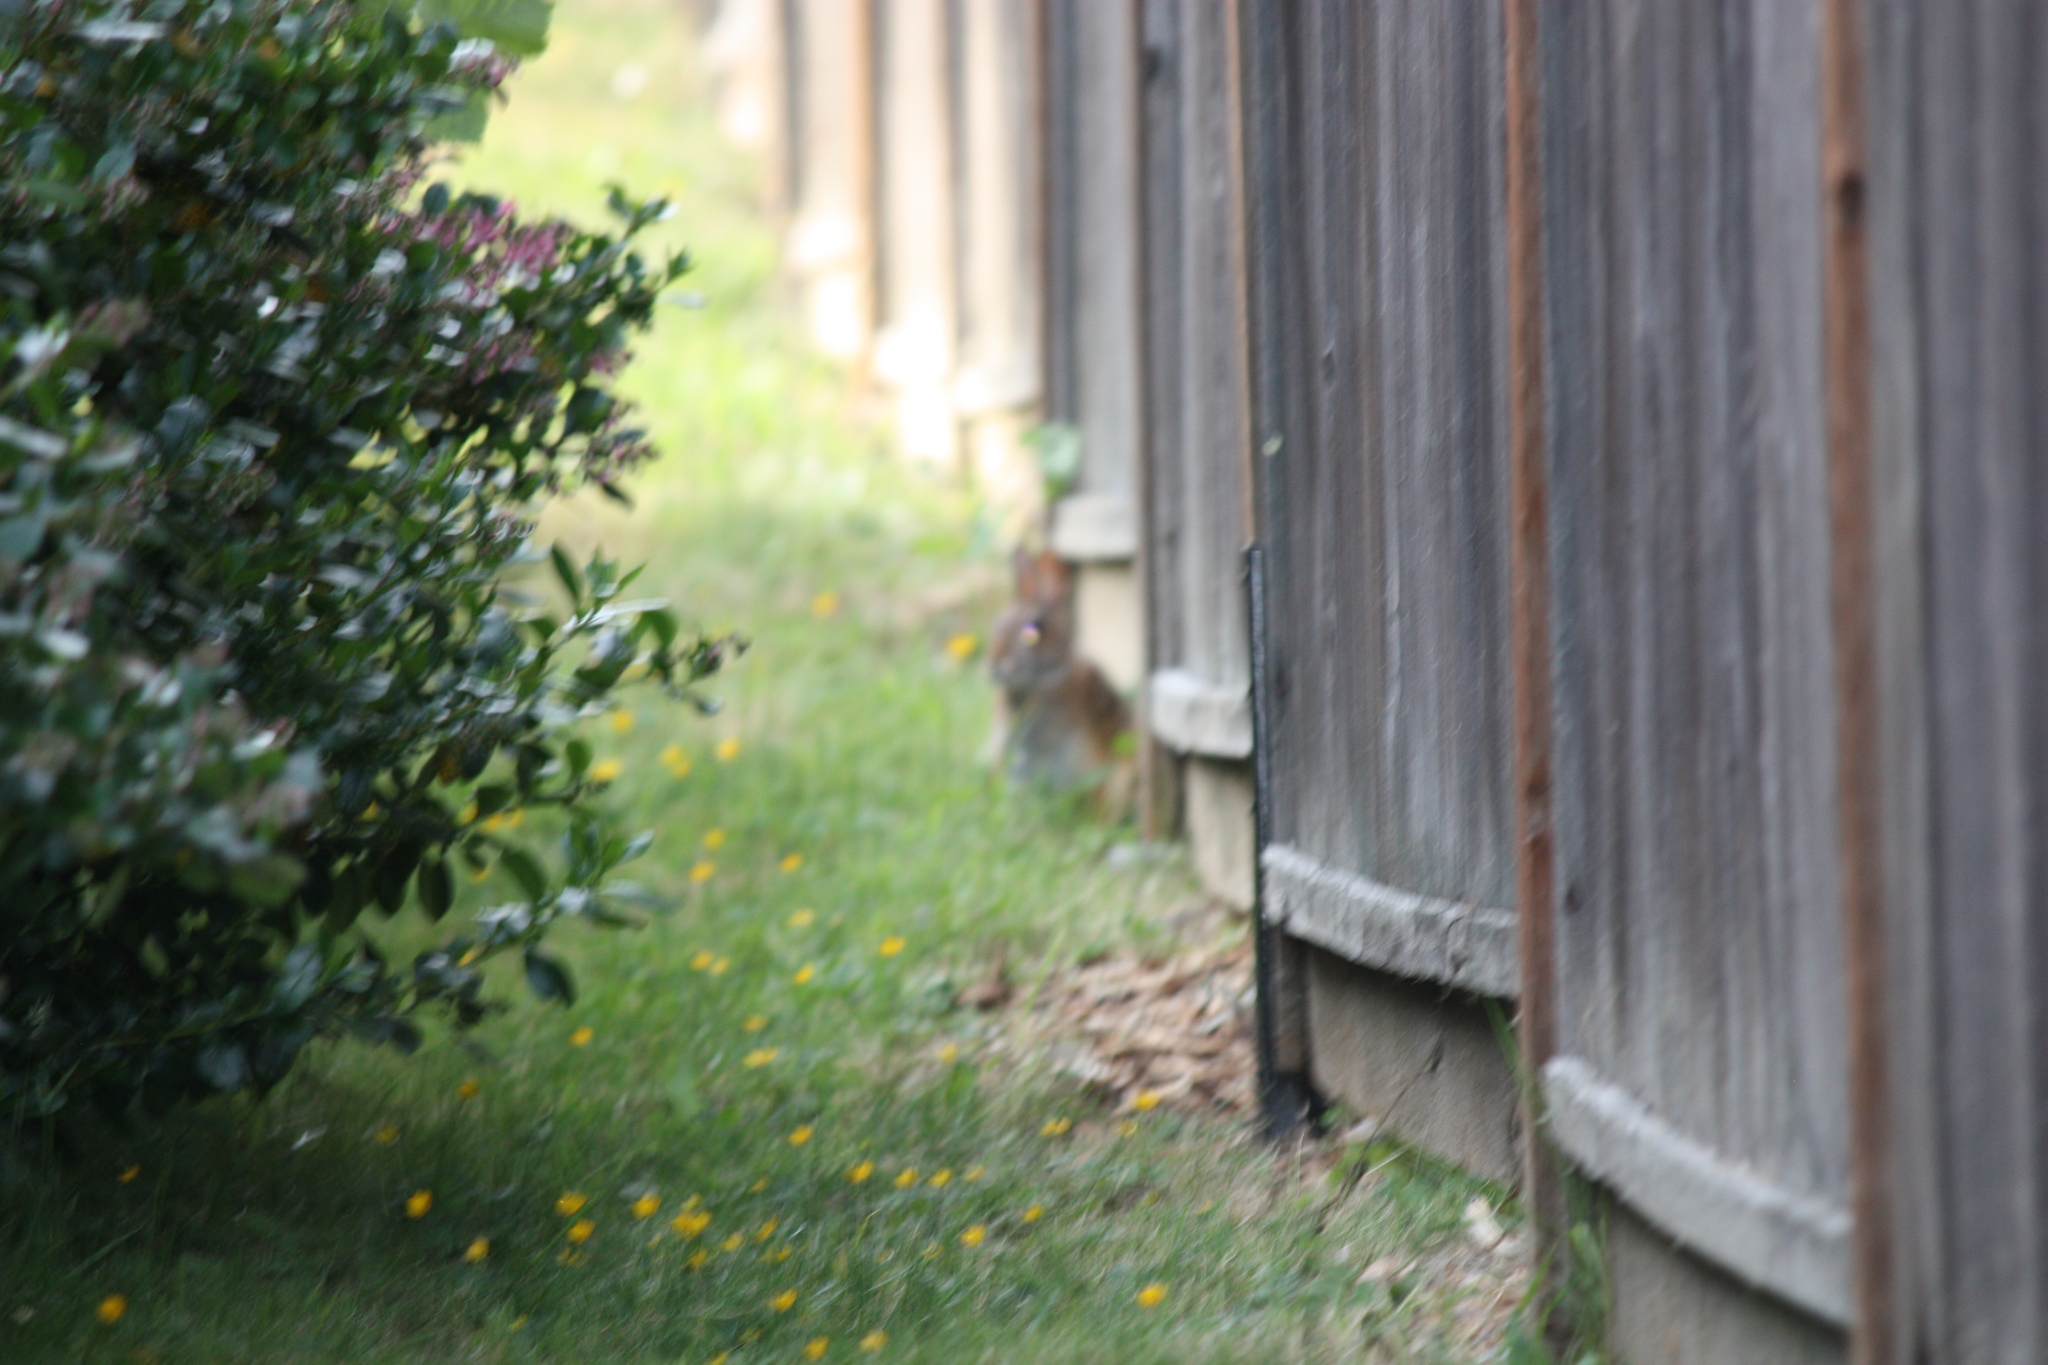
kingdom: Animalia
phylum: Chordata
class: Mammalia
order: Lagomorpha
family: Leporidae
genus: Sylvilagus
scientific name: Sylvilagus floridanus
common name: Eastern cottontail
